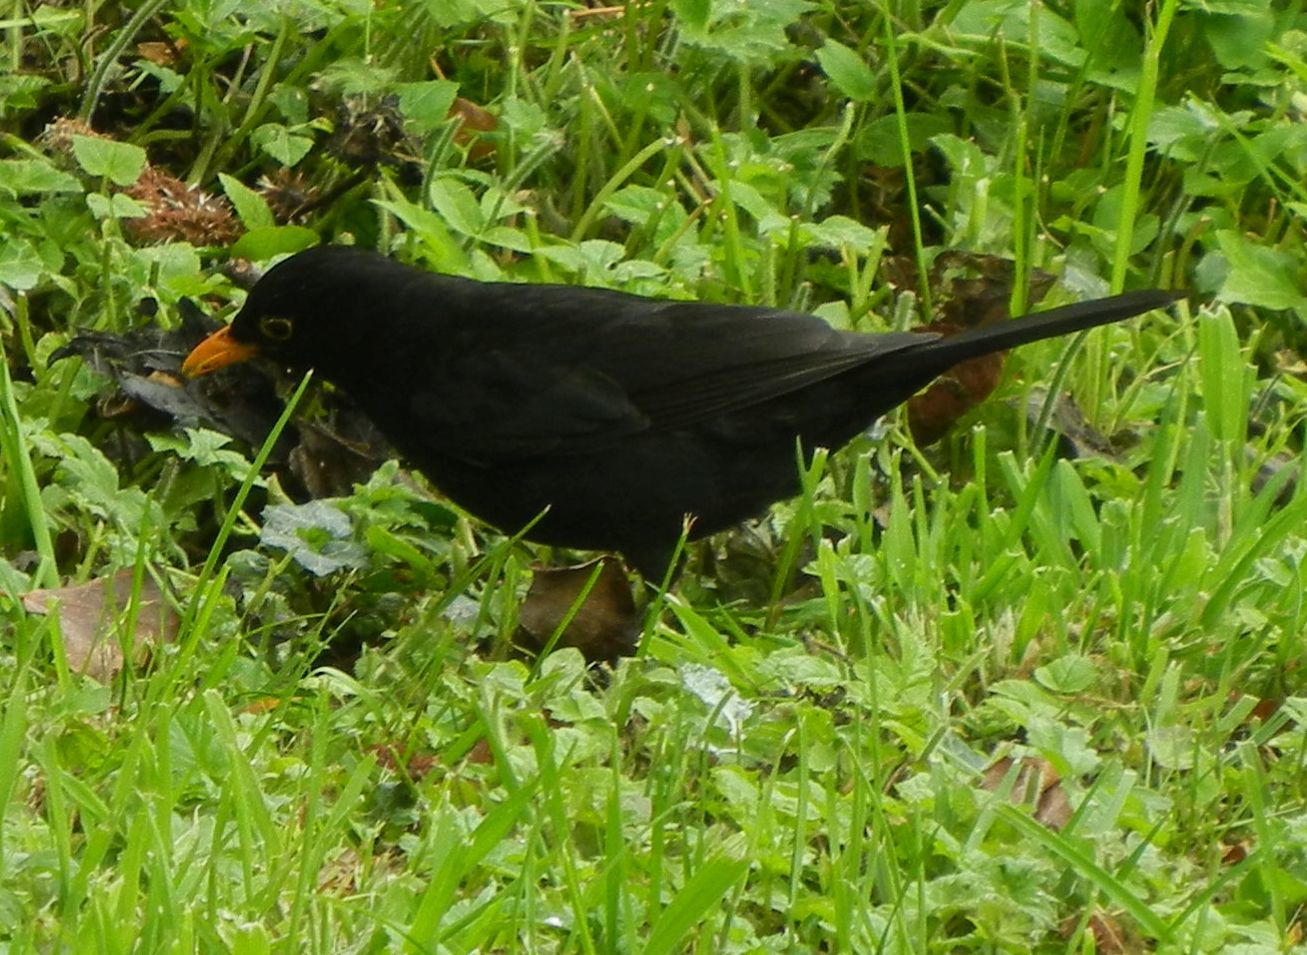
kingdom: Animalia
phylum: Chordata
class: Aves
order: Passeriformes
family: Turdidae
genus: Turdus
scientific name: Turdus merula
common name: Common blackbird
